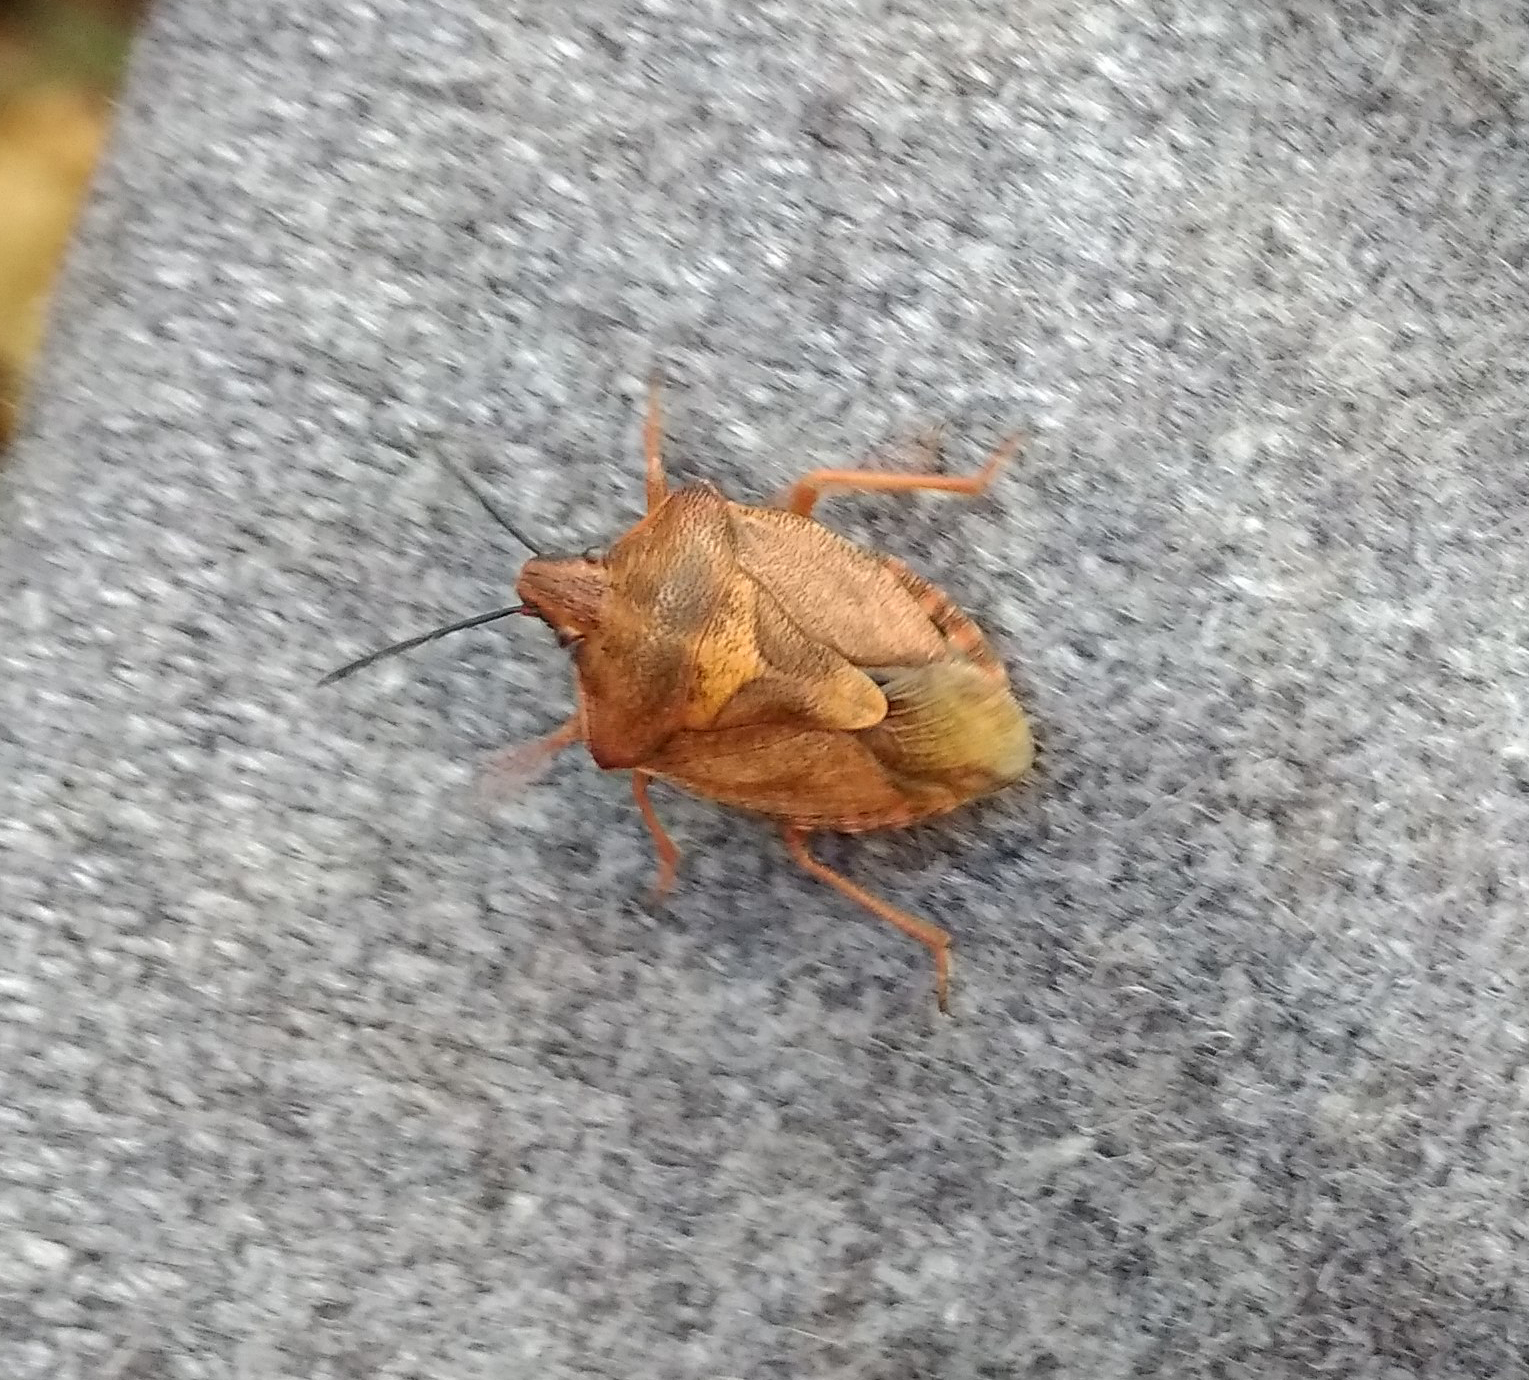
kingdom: Animalia
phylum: Arthropoda
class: Insecta
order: Hemiptera
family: Pentatomidae
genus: Carpocoris
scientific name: Carpocoris purpureipennis
